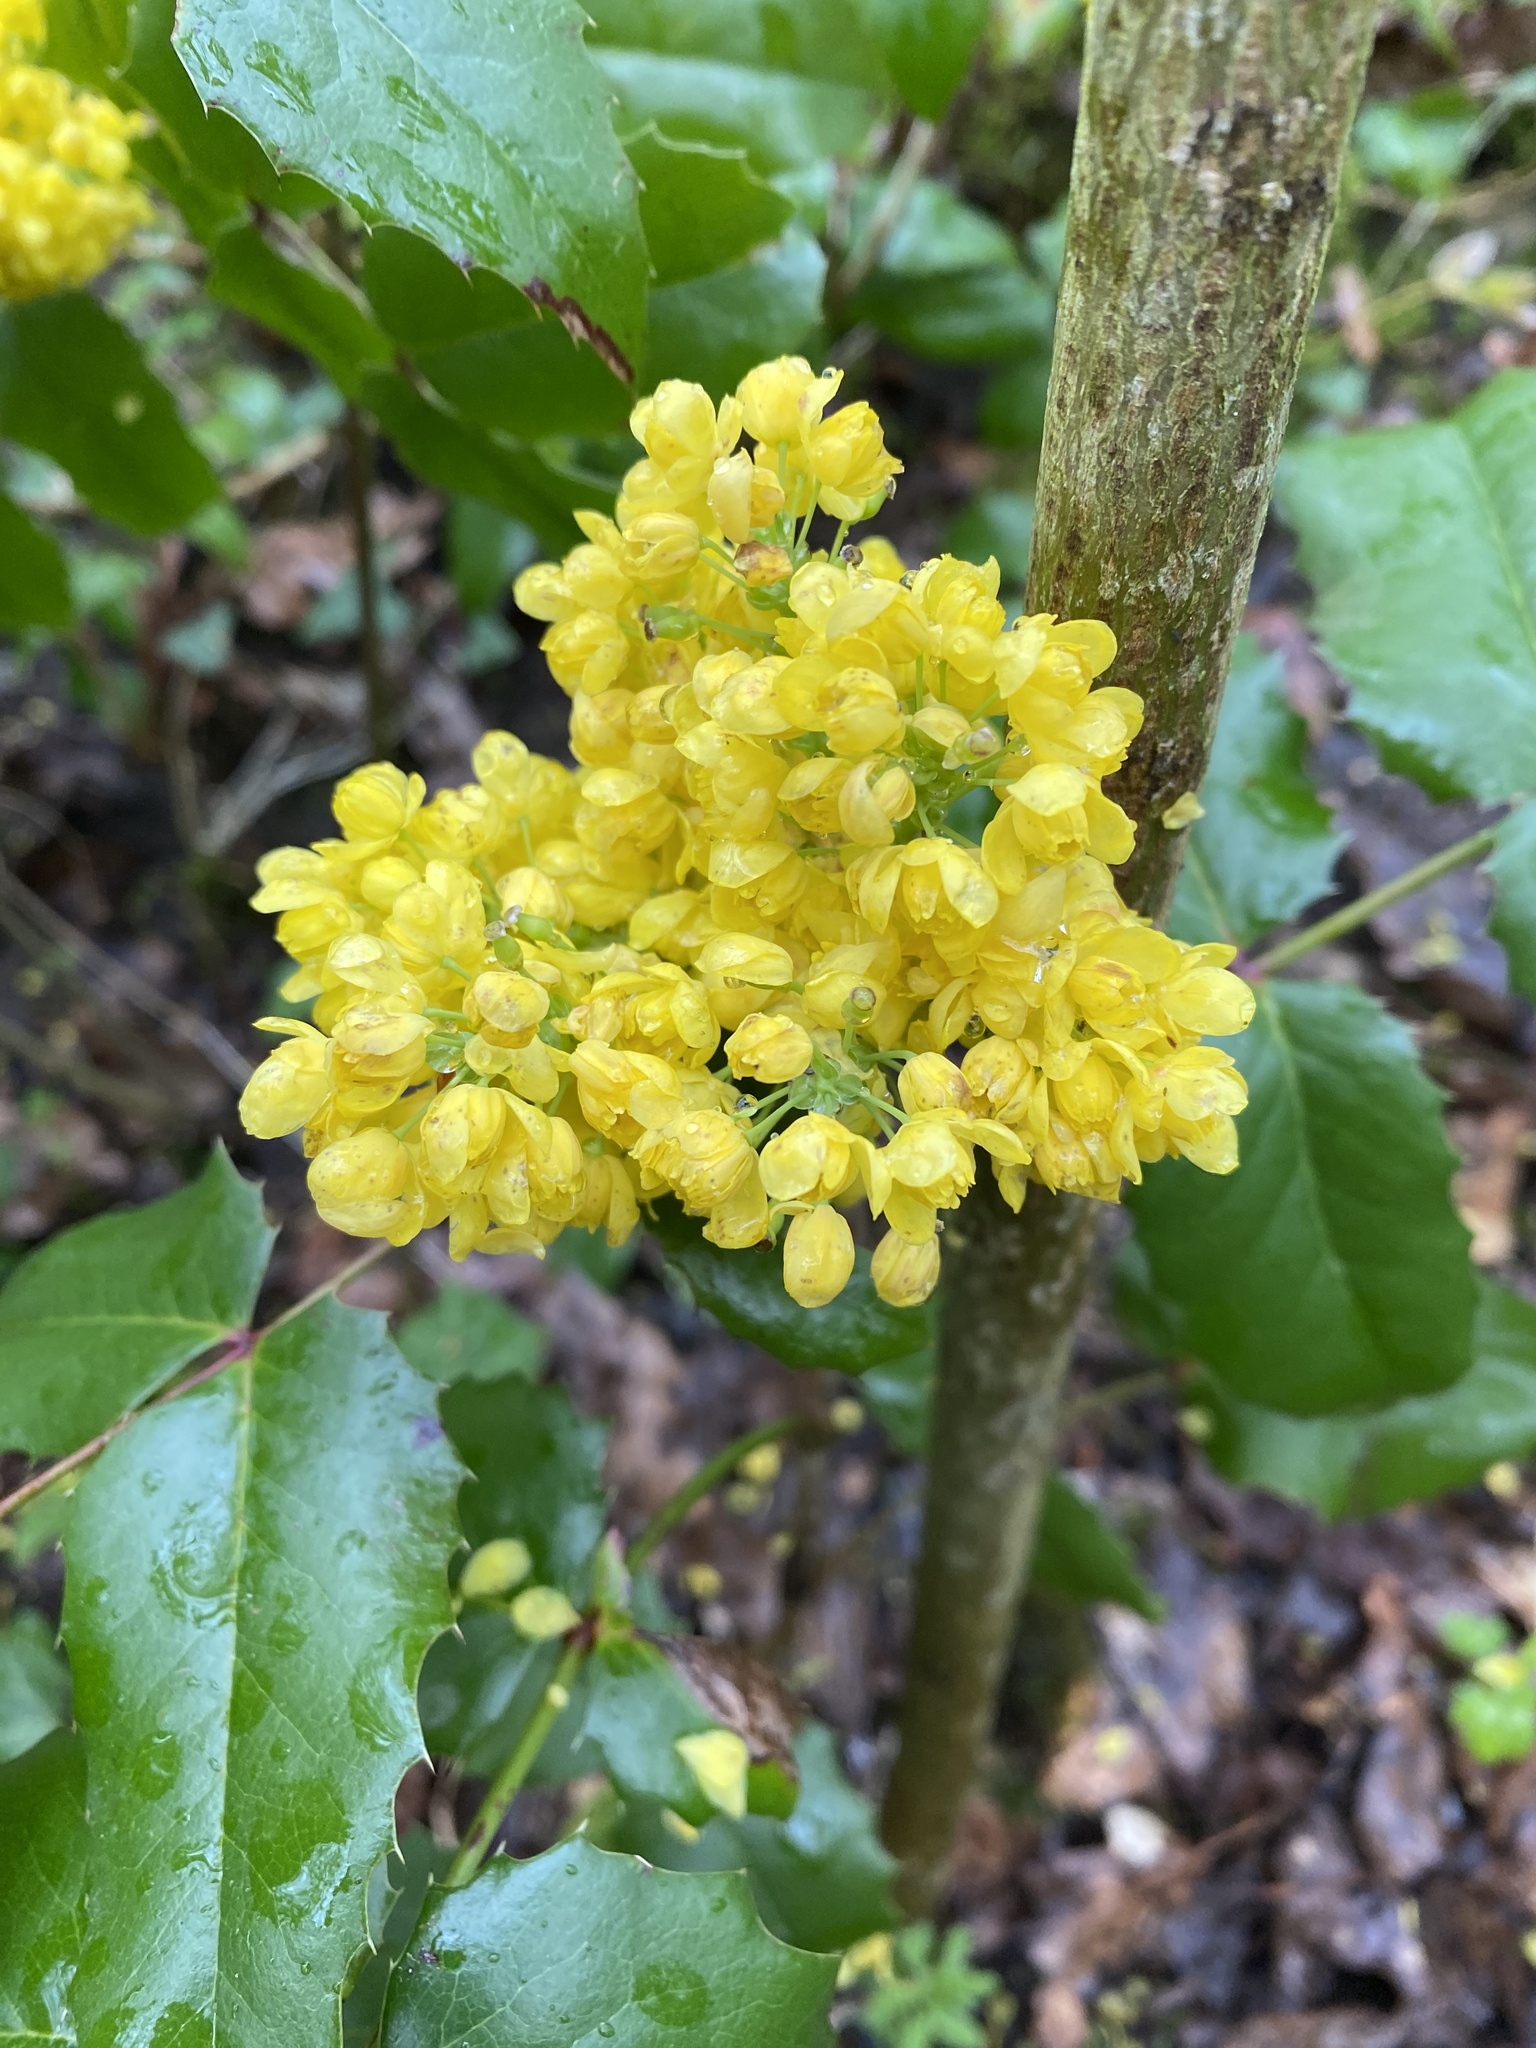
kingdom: Plantae
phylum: Tracheophyta
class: Magnoliopsida
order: Ranunculales
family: Berberidaceae
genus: Mahonia
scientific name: Mahonia aquifolium
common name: Oregon-grape
